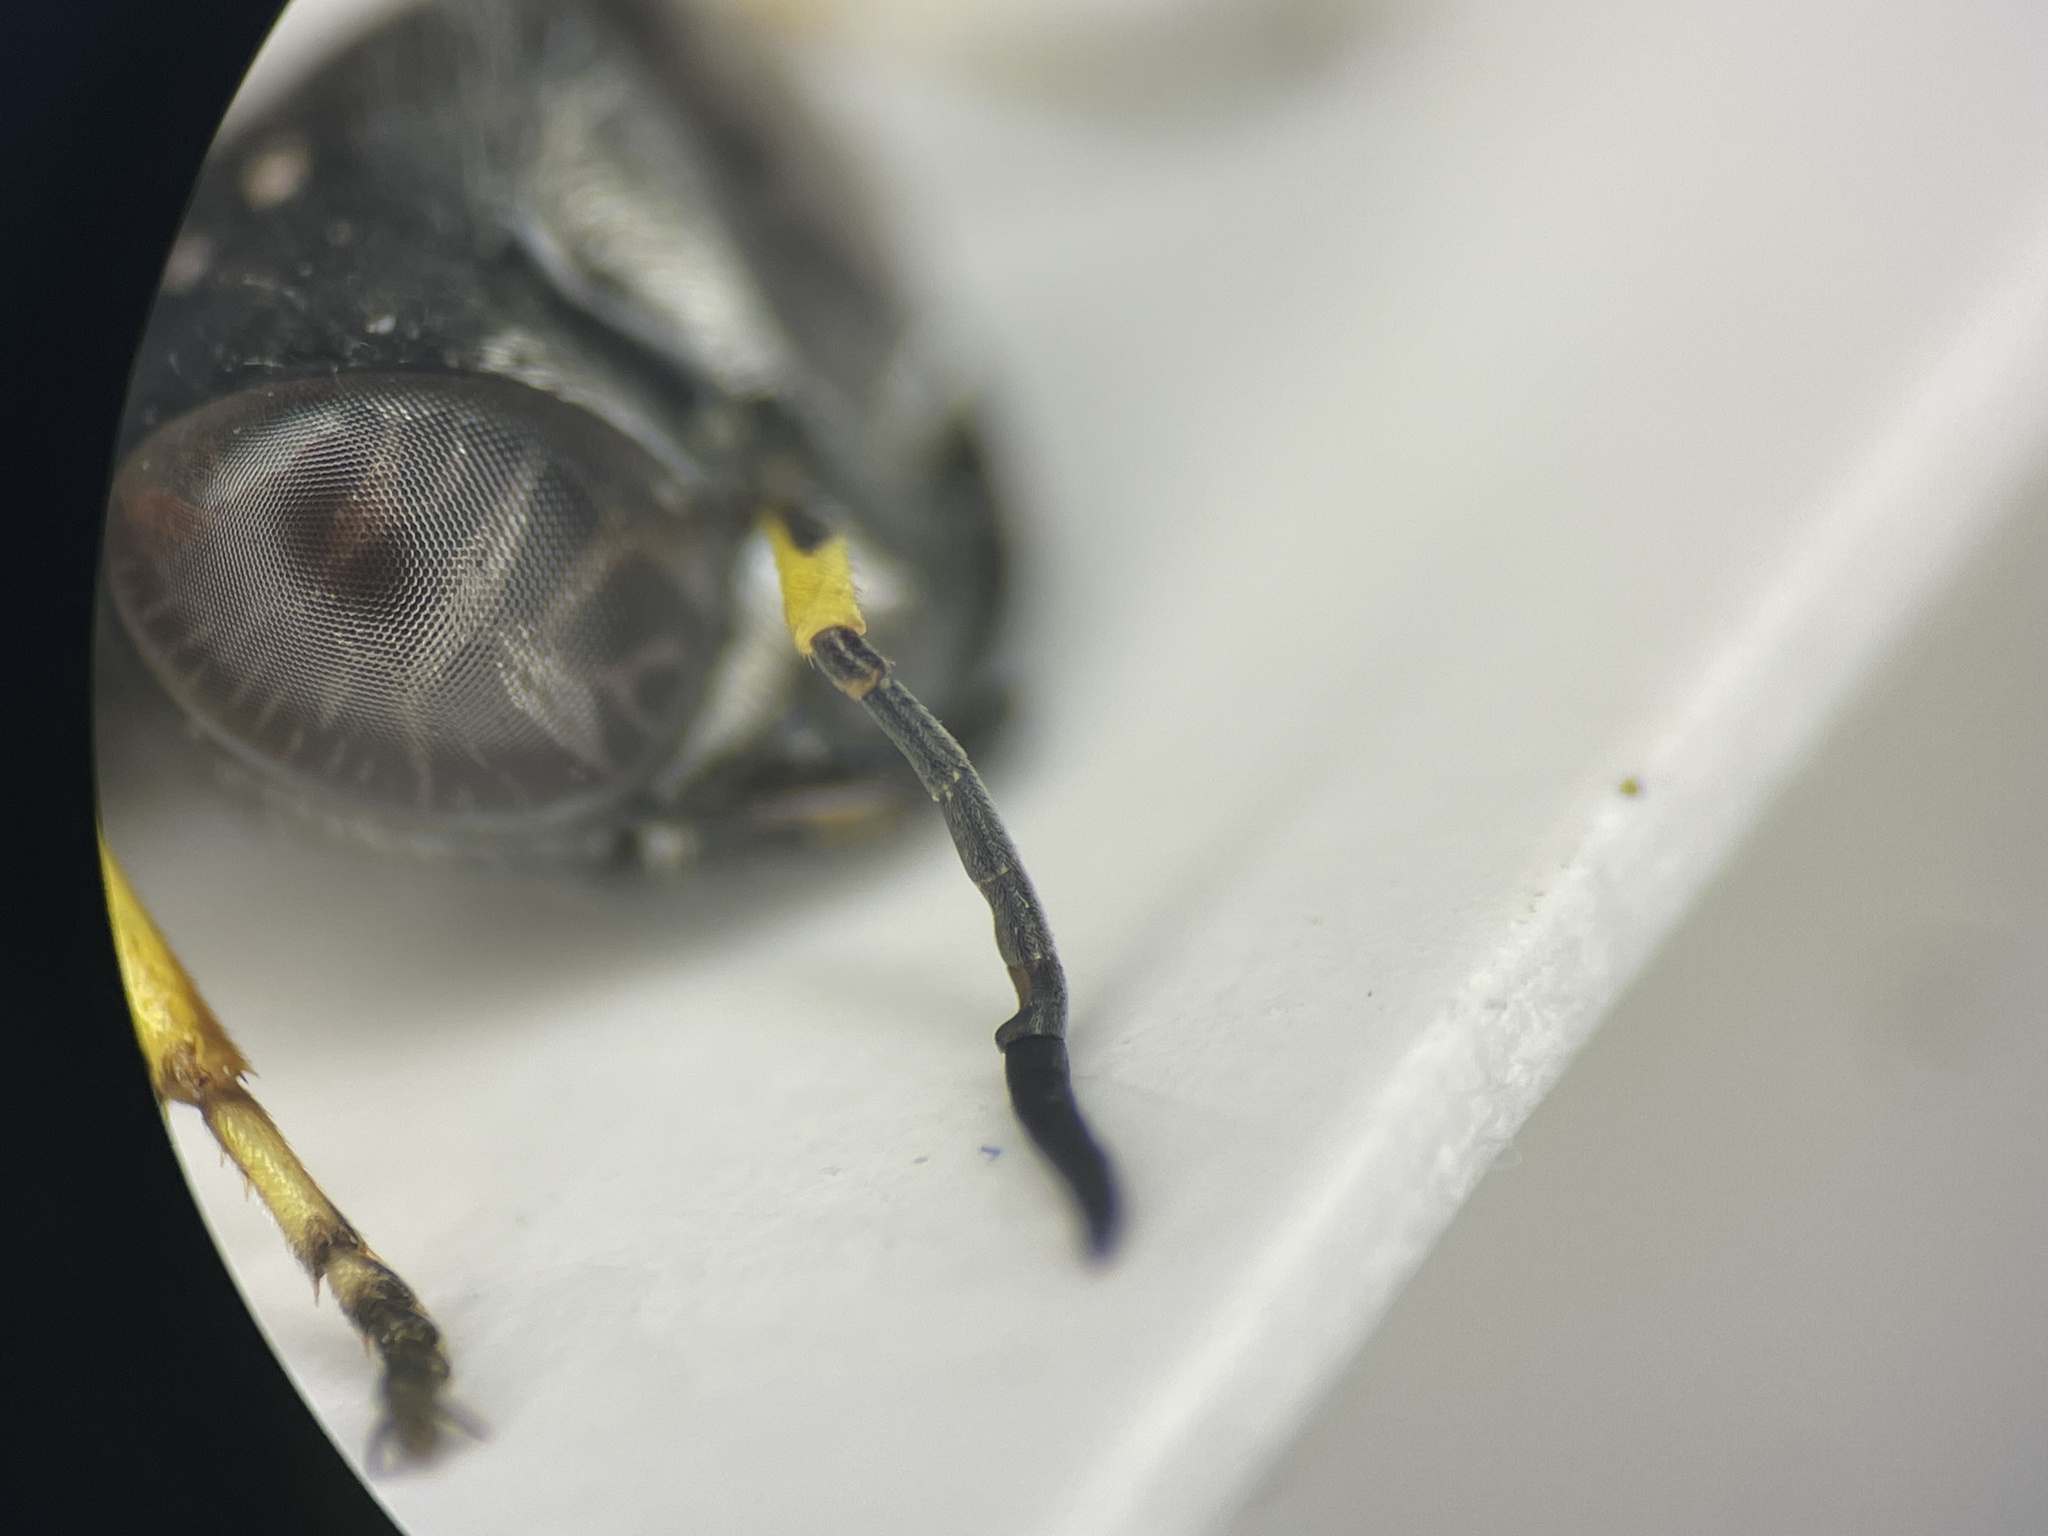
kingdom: Animalia
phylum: Arthropoda
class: Insecta
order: Hymenoptera
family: Crabronidae
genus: Ectemnius
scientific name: Ectemnius continuus
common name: Common ectemnius
